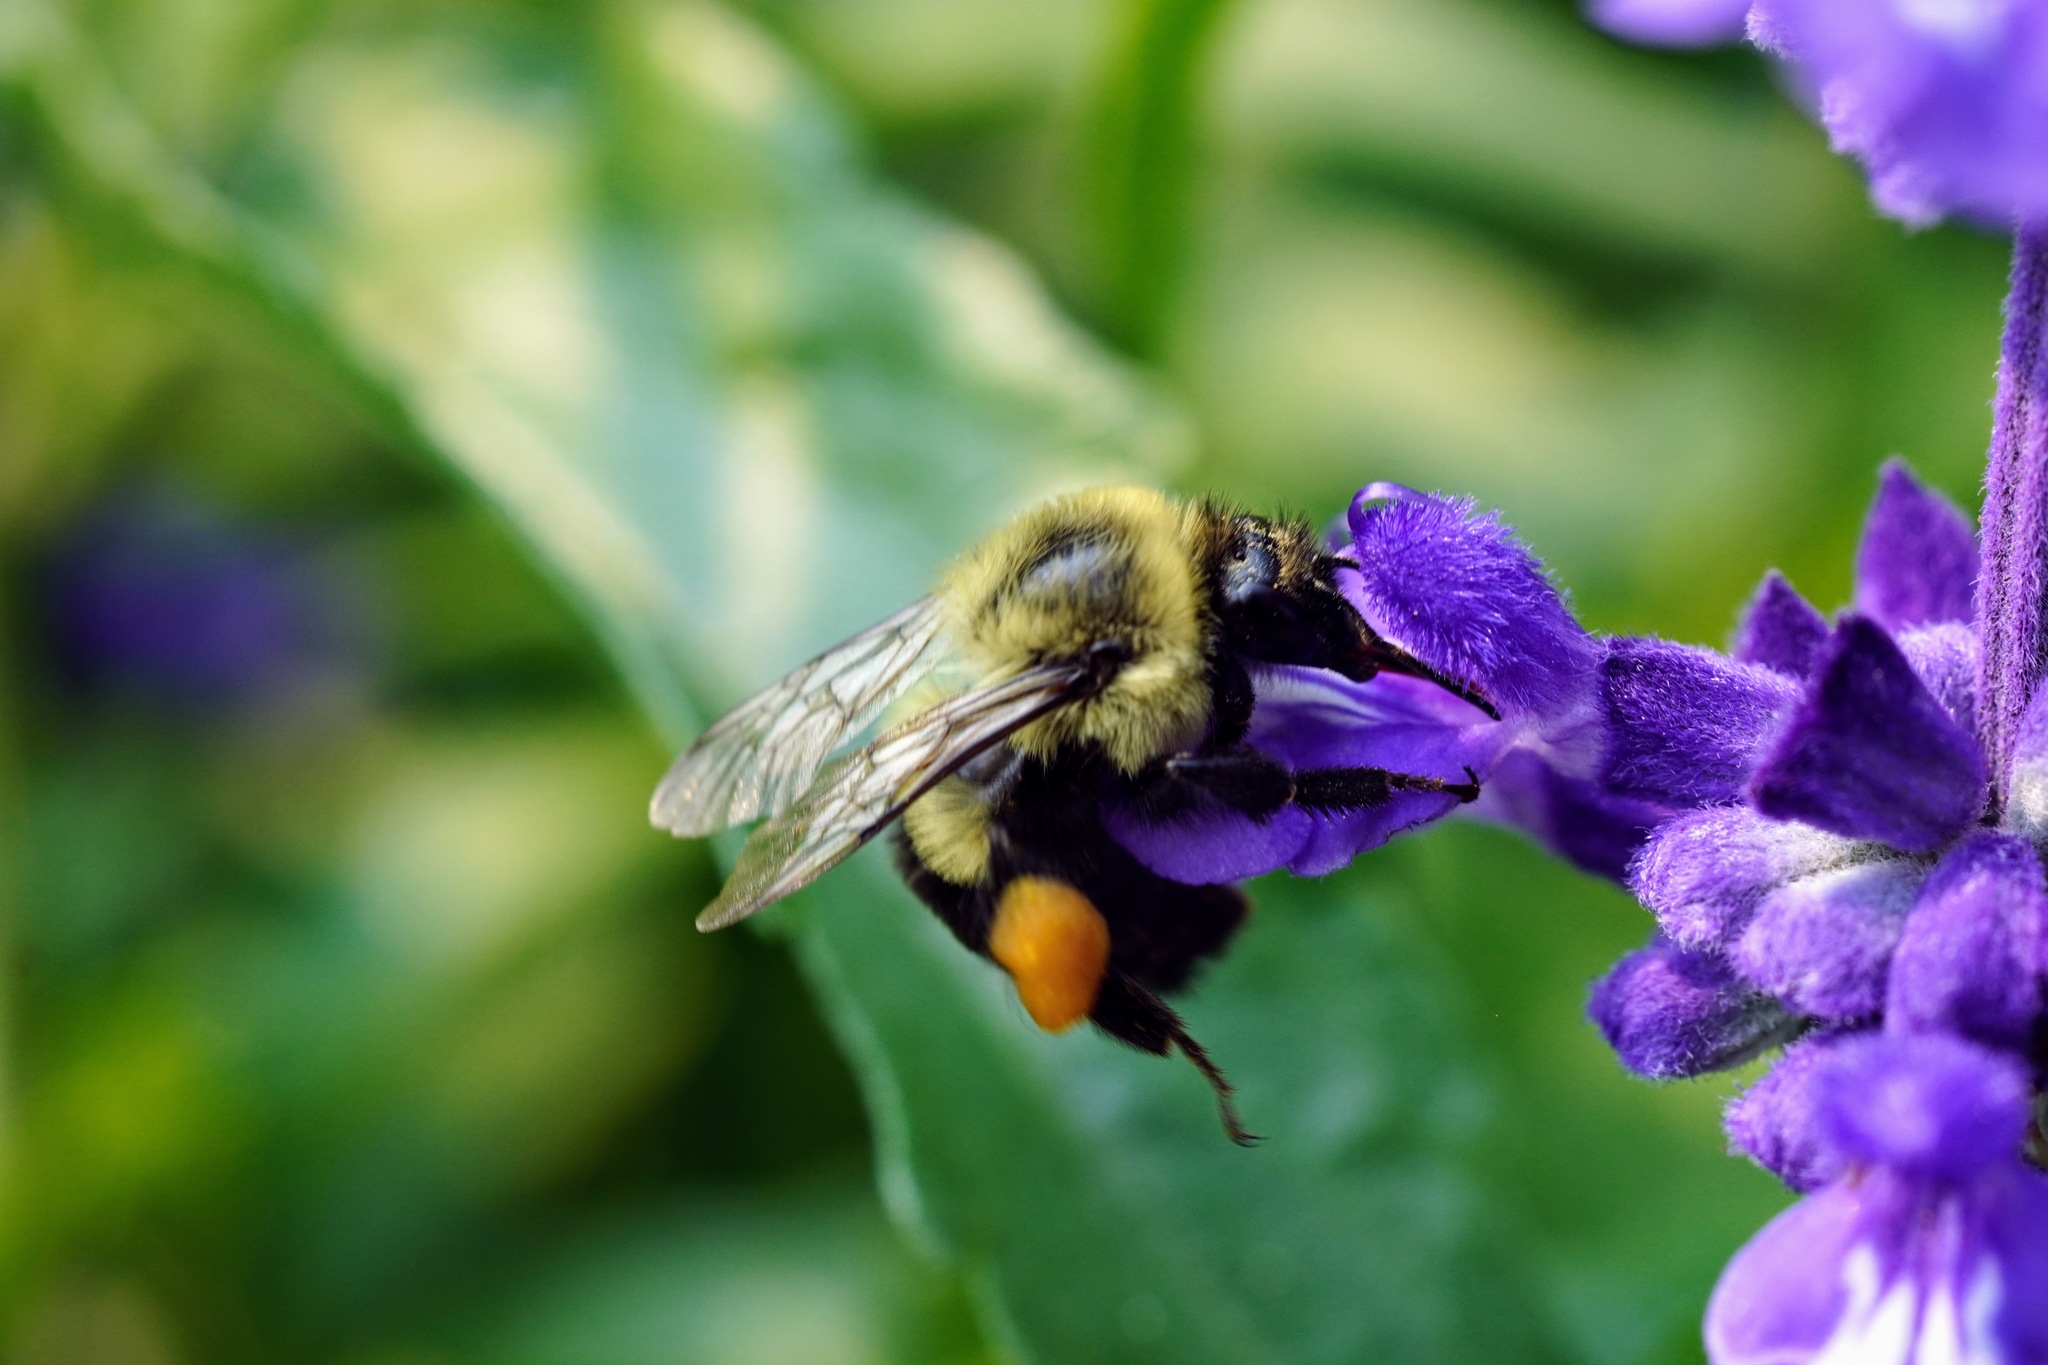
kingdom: Animalia
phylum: Arthropoda
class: Insecta
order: Hymenoptera
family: Apidae
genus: Bombus
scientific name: Bombus impatiens
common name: Common eastern bumble bee
